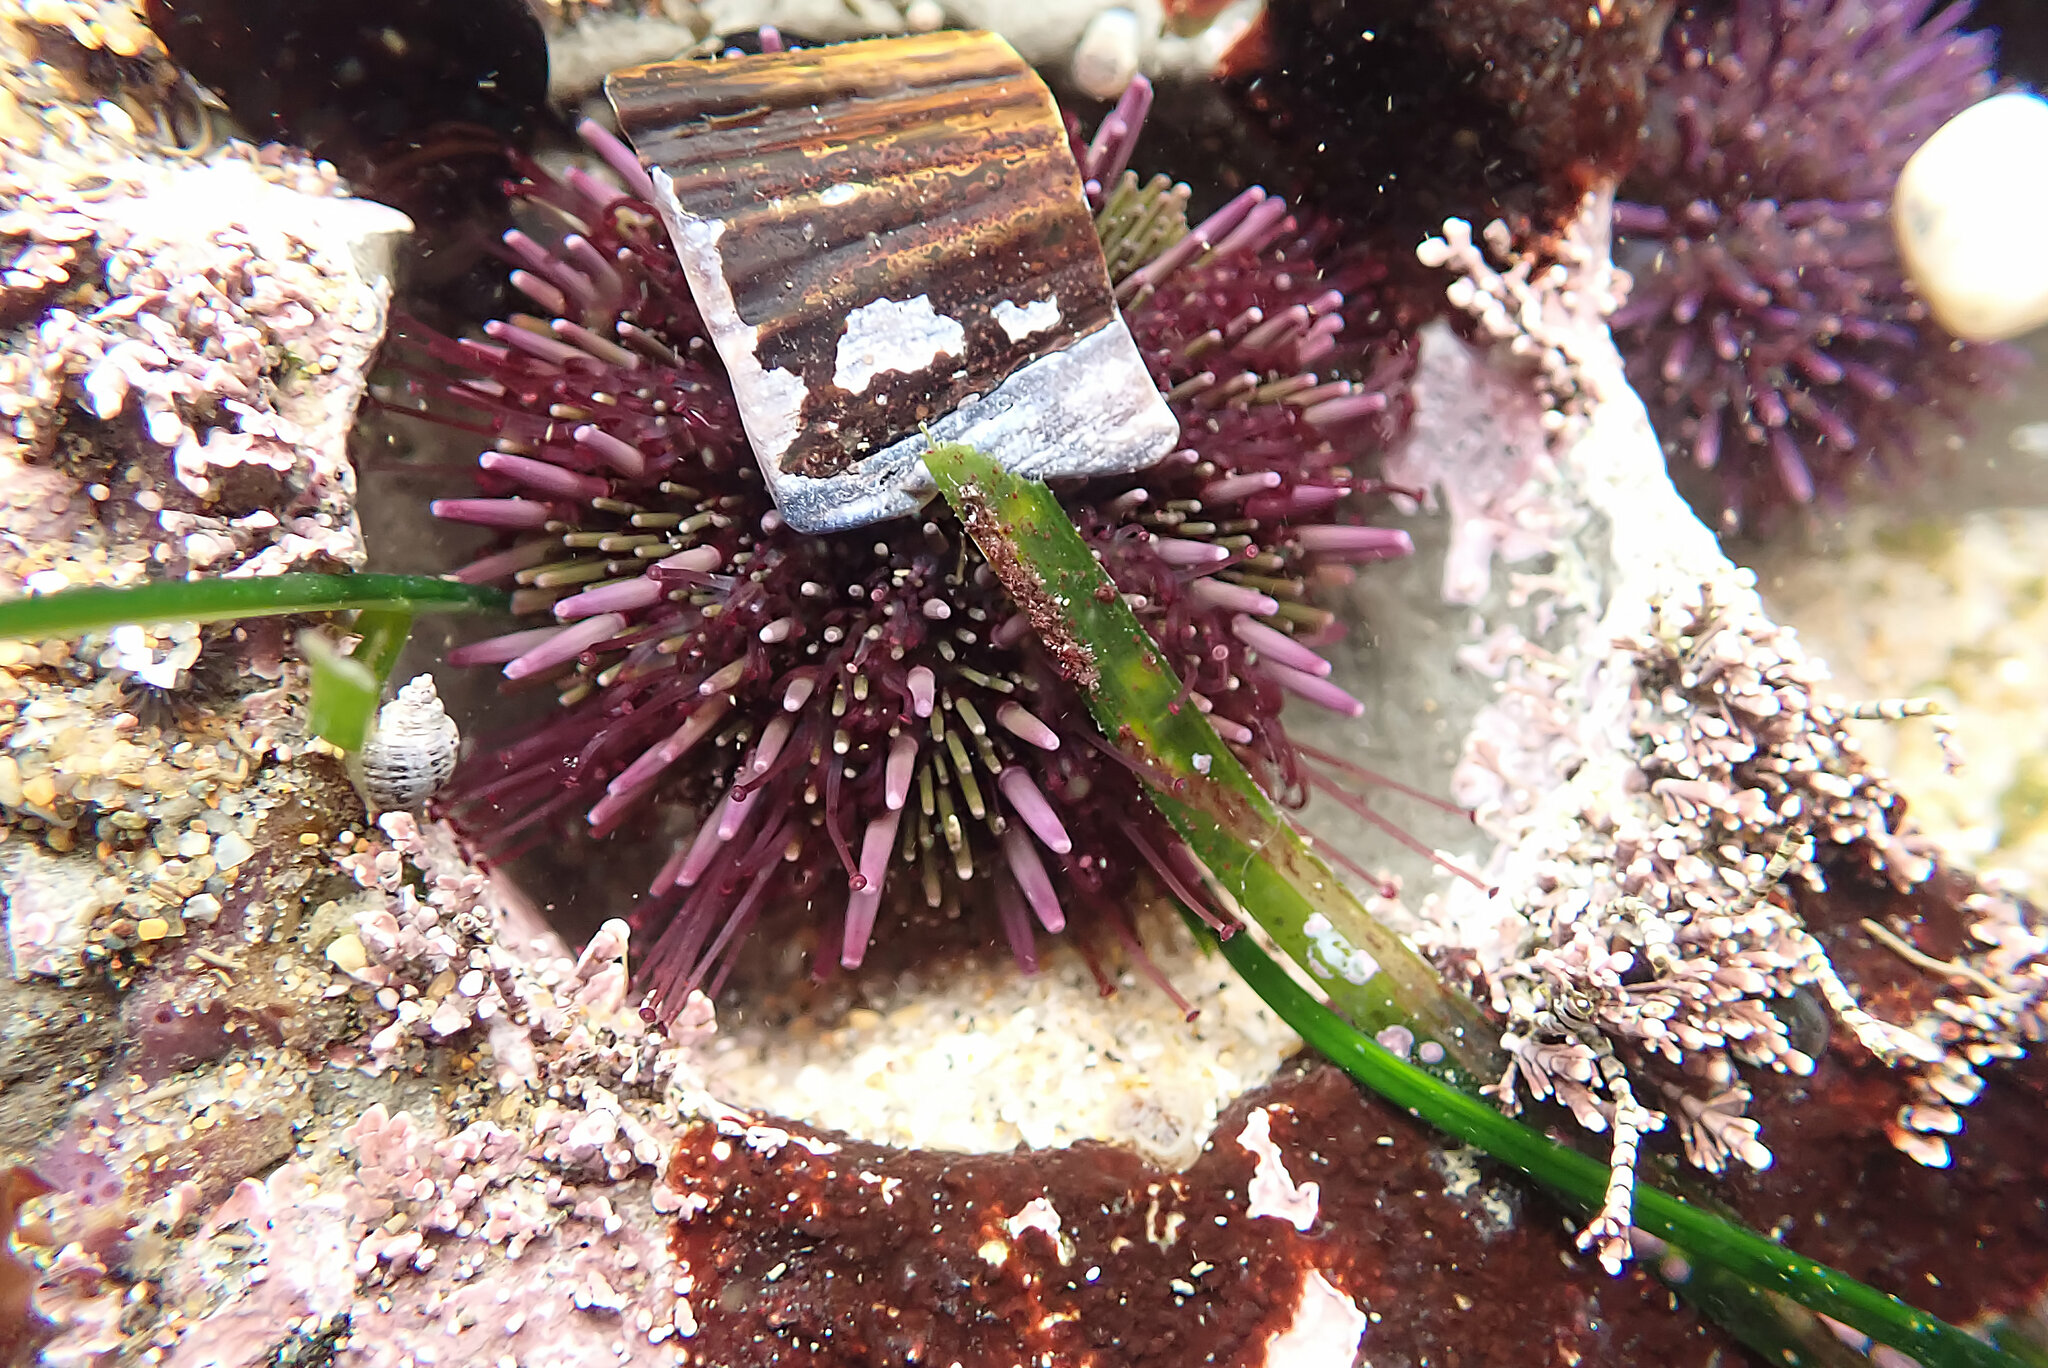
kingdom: Animalia
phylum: Echinodermata
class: Echinoidea
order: Camarodonta
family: Strongylocentrotidae
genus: Strongylocentrotus
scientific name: Strongylocentrotus purpuratus
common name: Purple sea urchin
